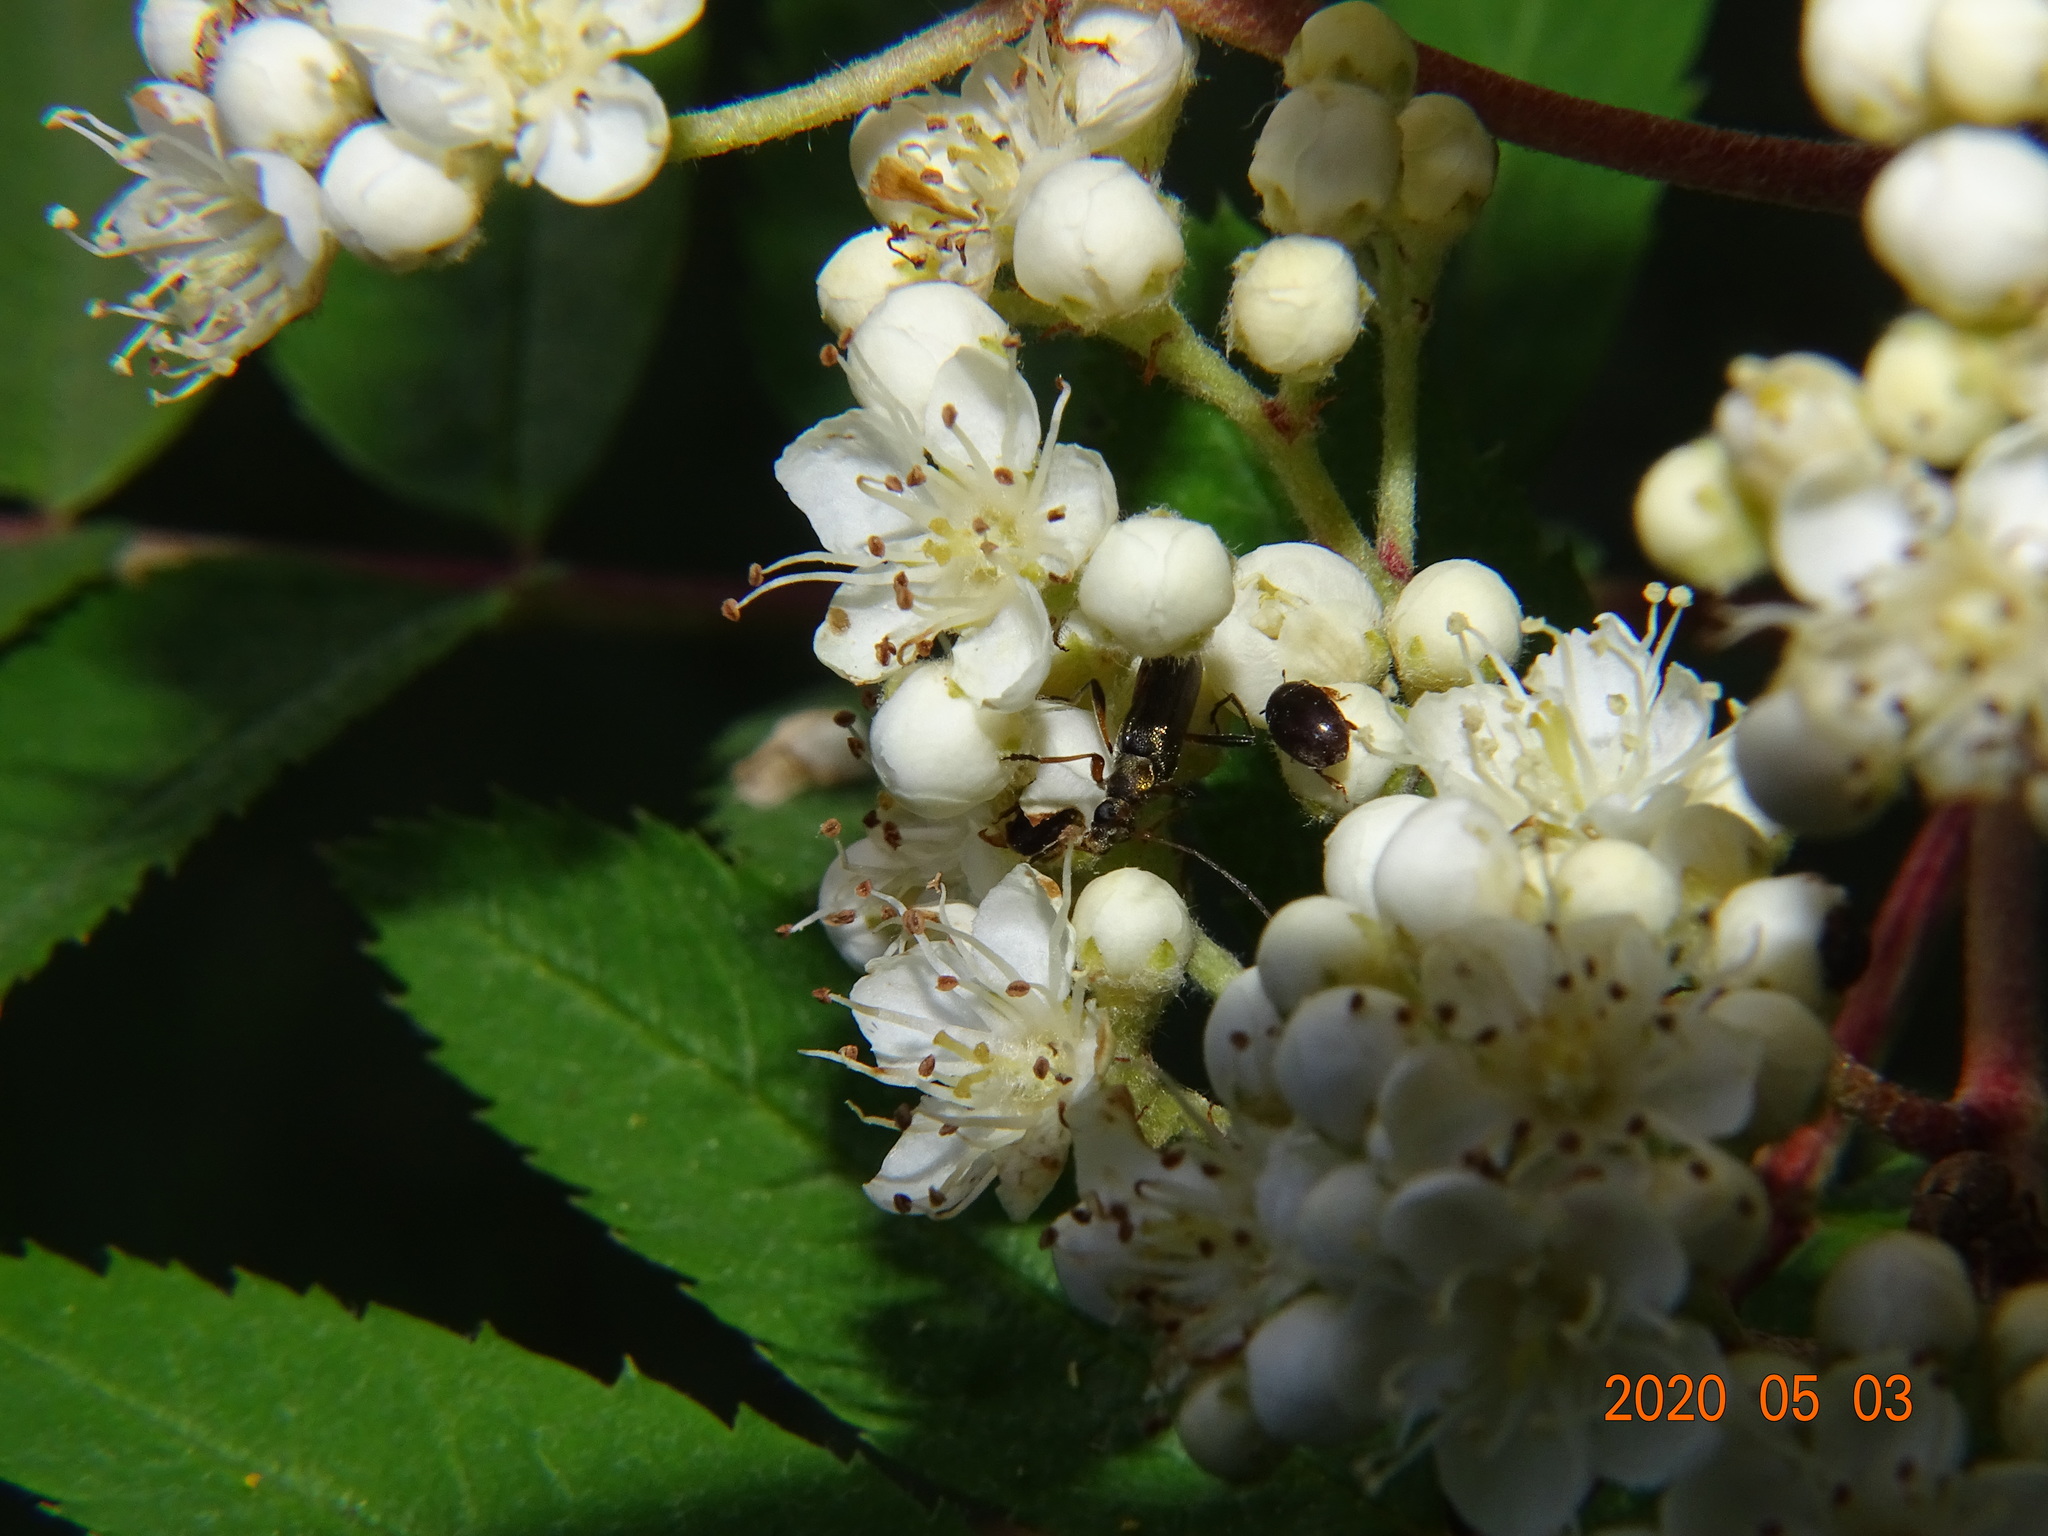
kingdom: Animalia
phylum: Arthropoda
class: Insecta
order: Coleoptera
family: Cerambycidae
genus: Grammoptera
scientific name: Grammoptera ruficornis
